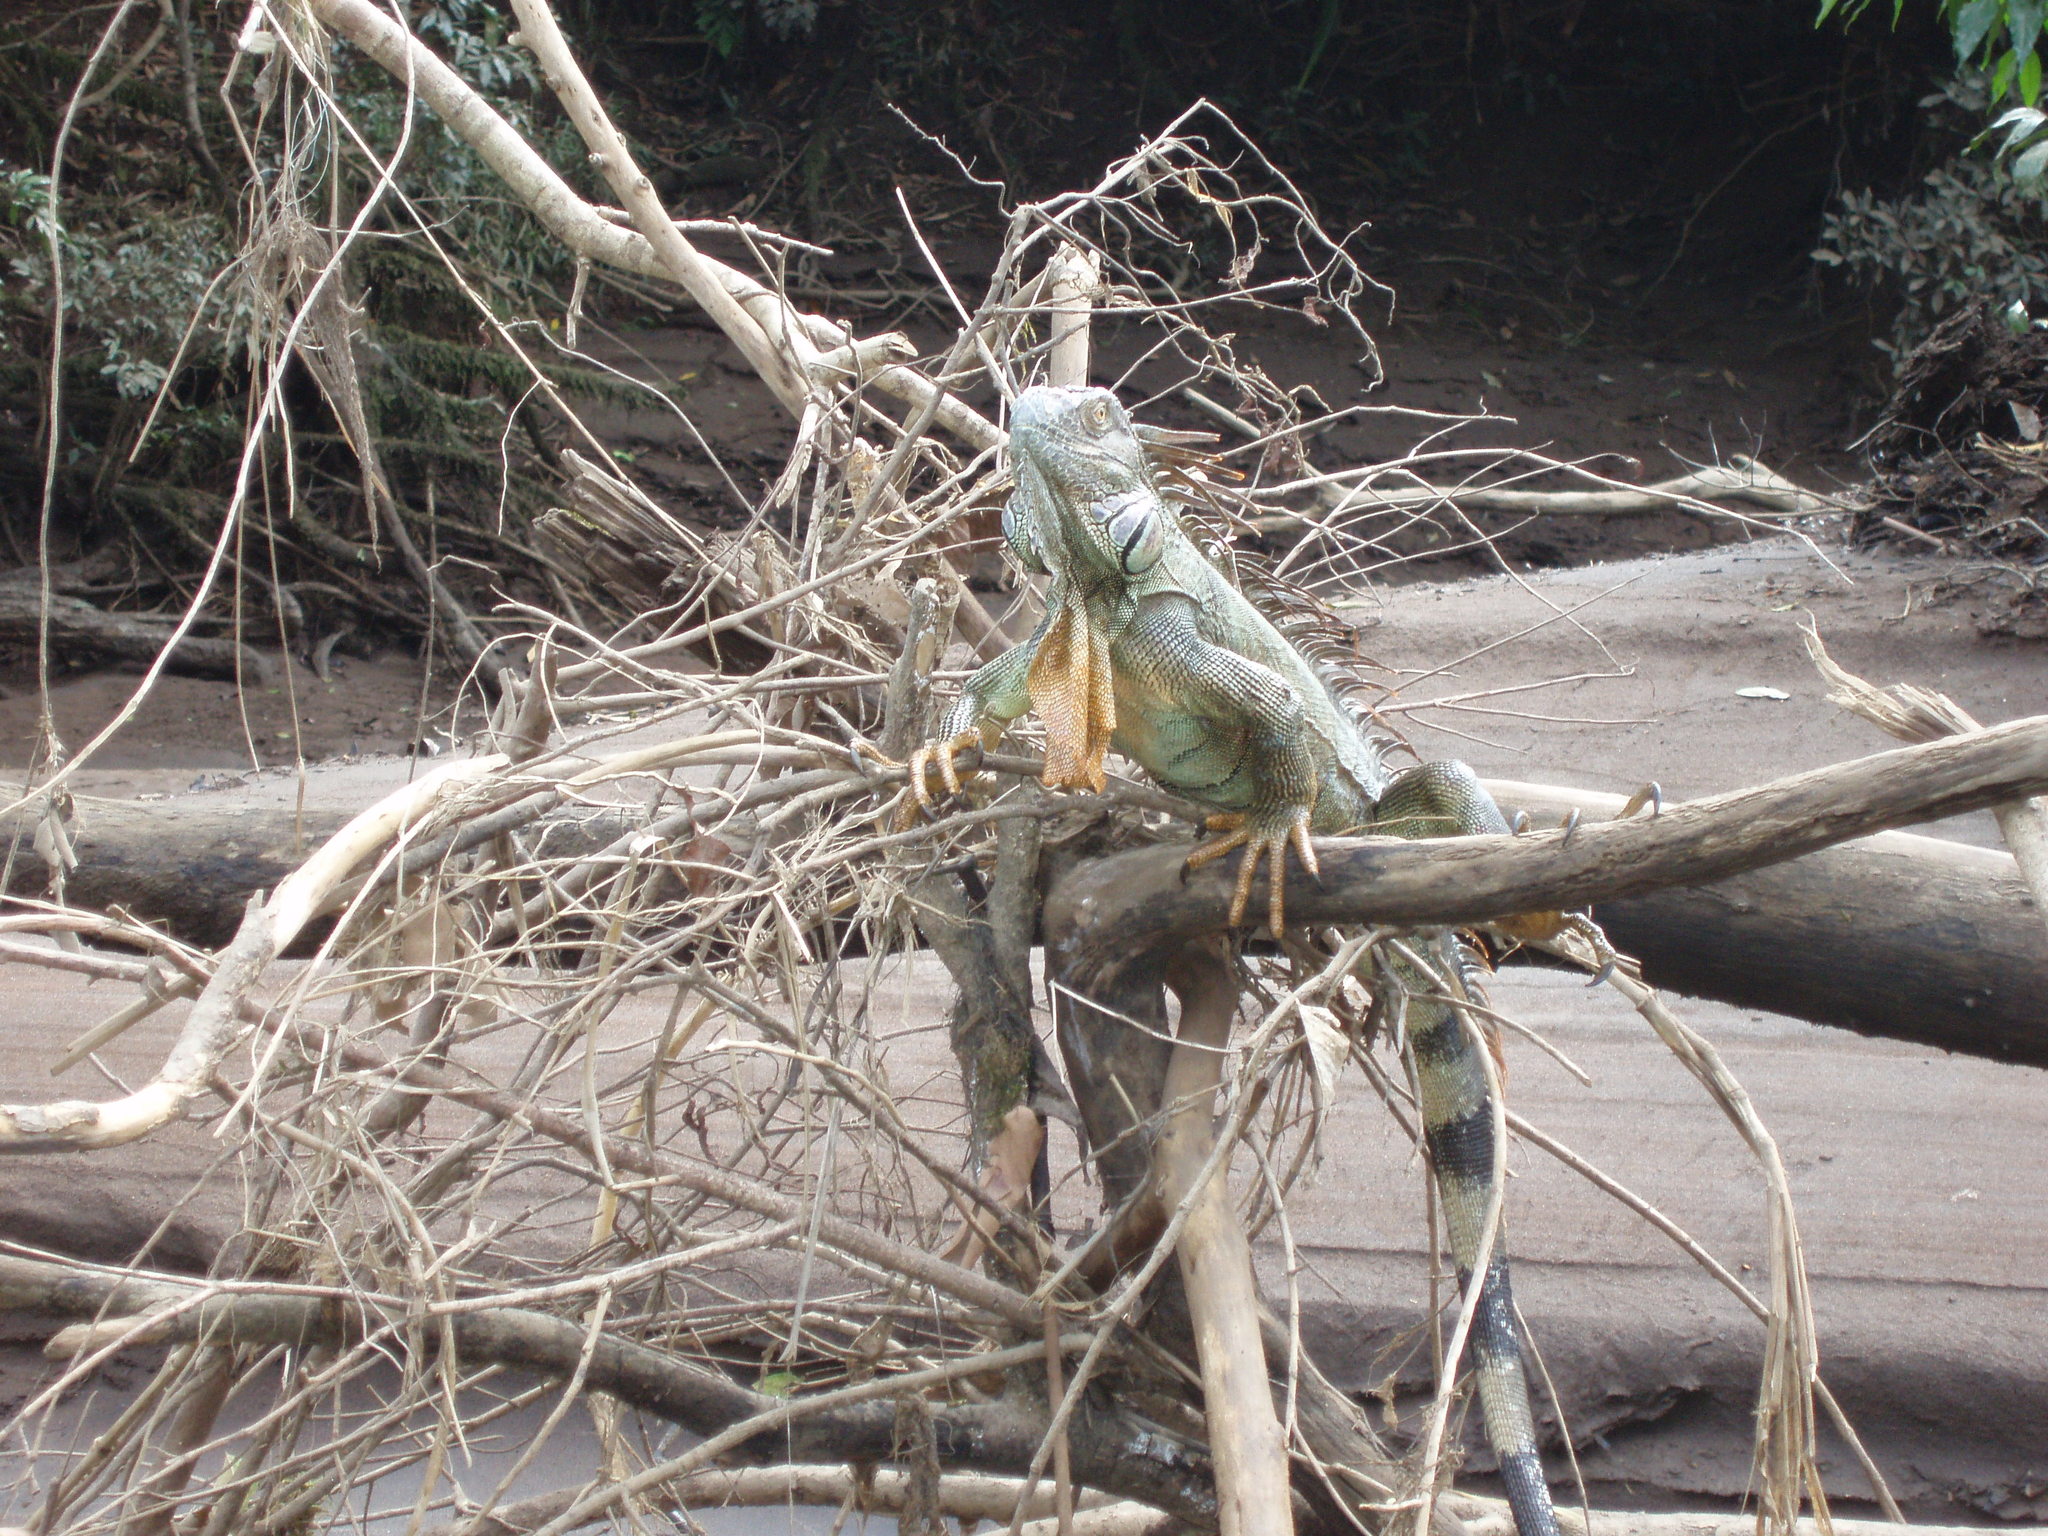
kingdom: Animalia
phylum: Chordata
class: Squamata
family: Iguanidae
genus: Iguana
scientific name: Iguana iguana
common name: Green iguana
